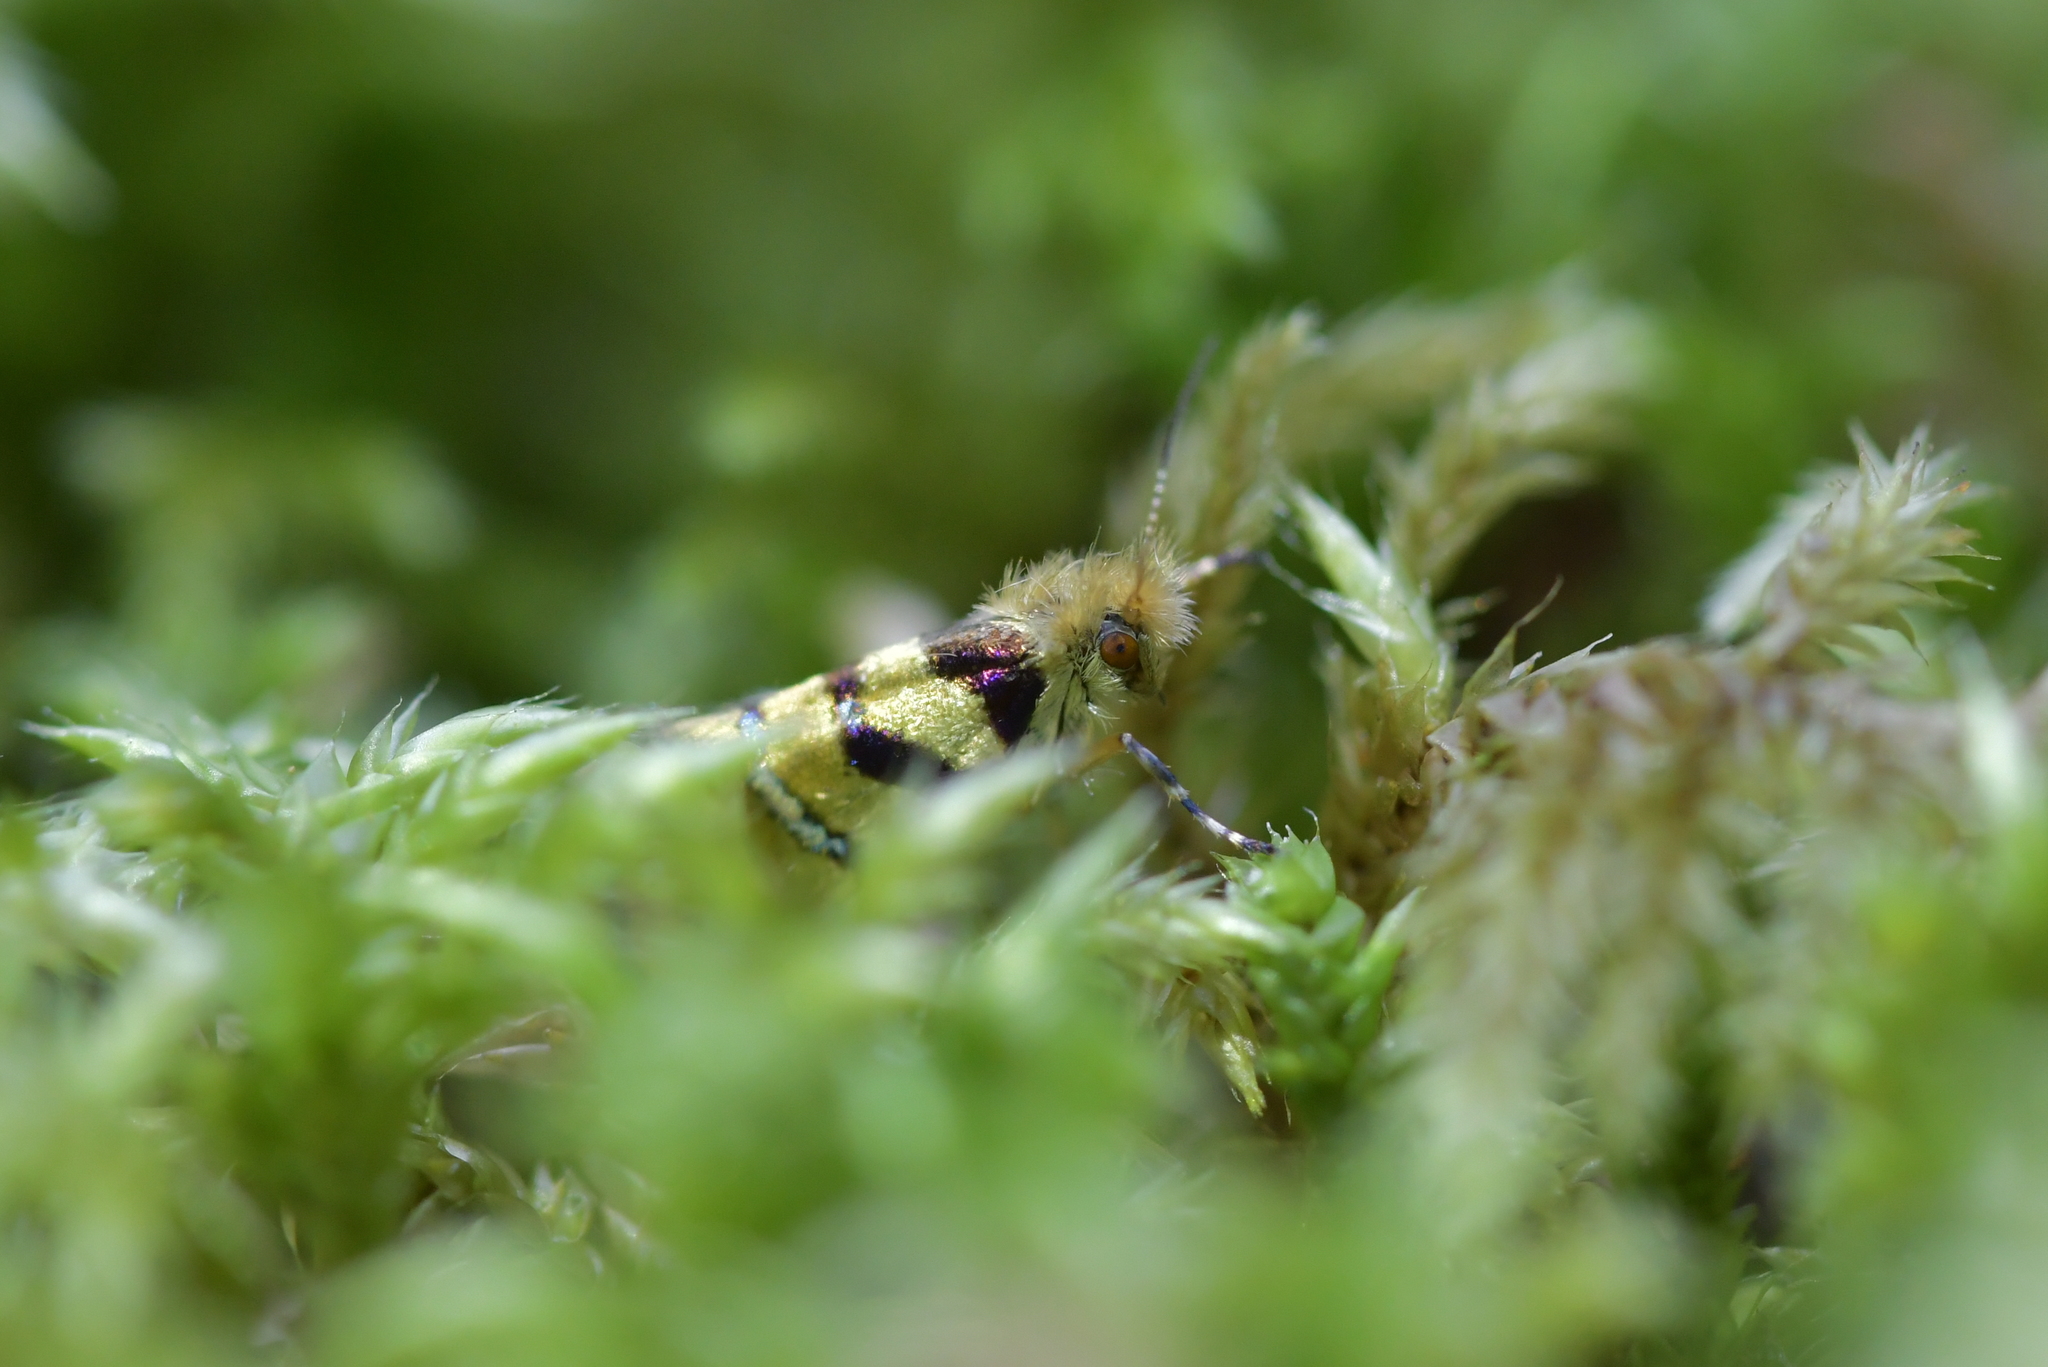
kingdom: Animalia
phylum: Arthropoda
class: Insecta
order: Lepidoptera
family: Micropterigidae
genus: Micropardalis
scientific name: Micropardalis aurella
